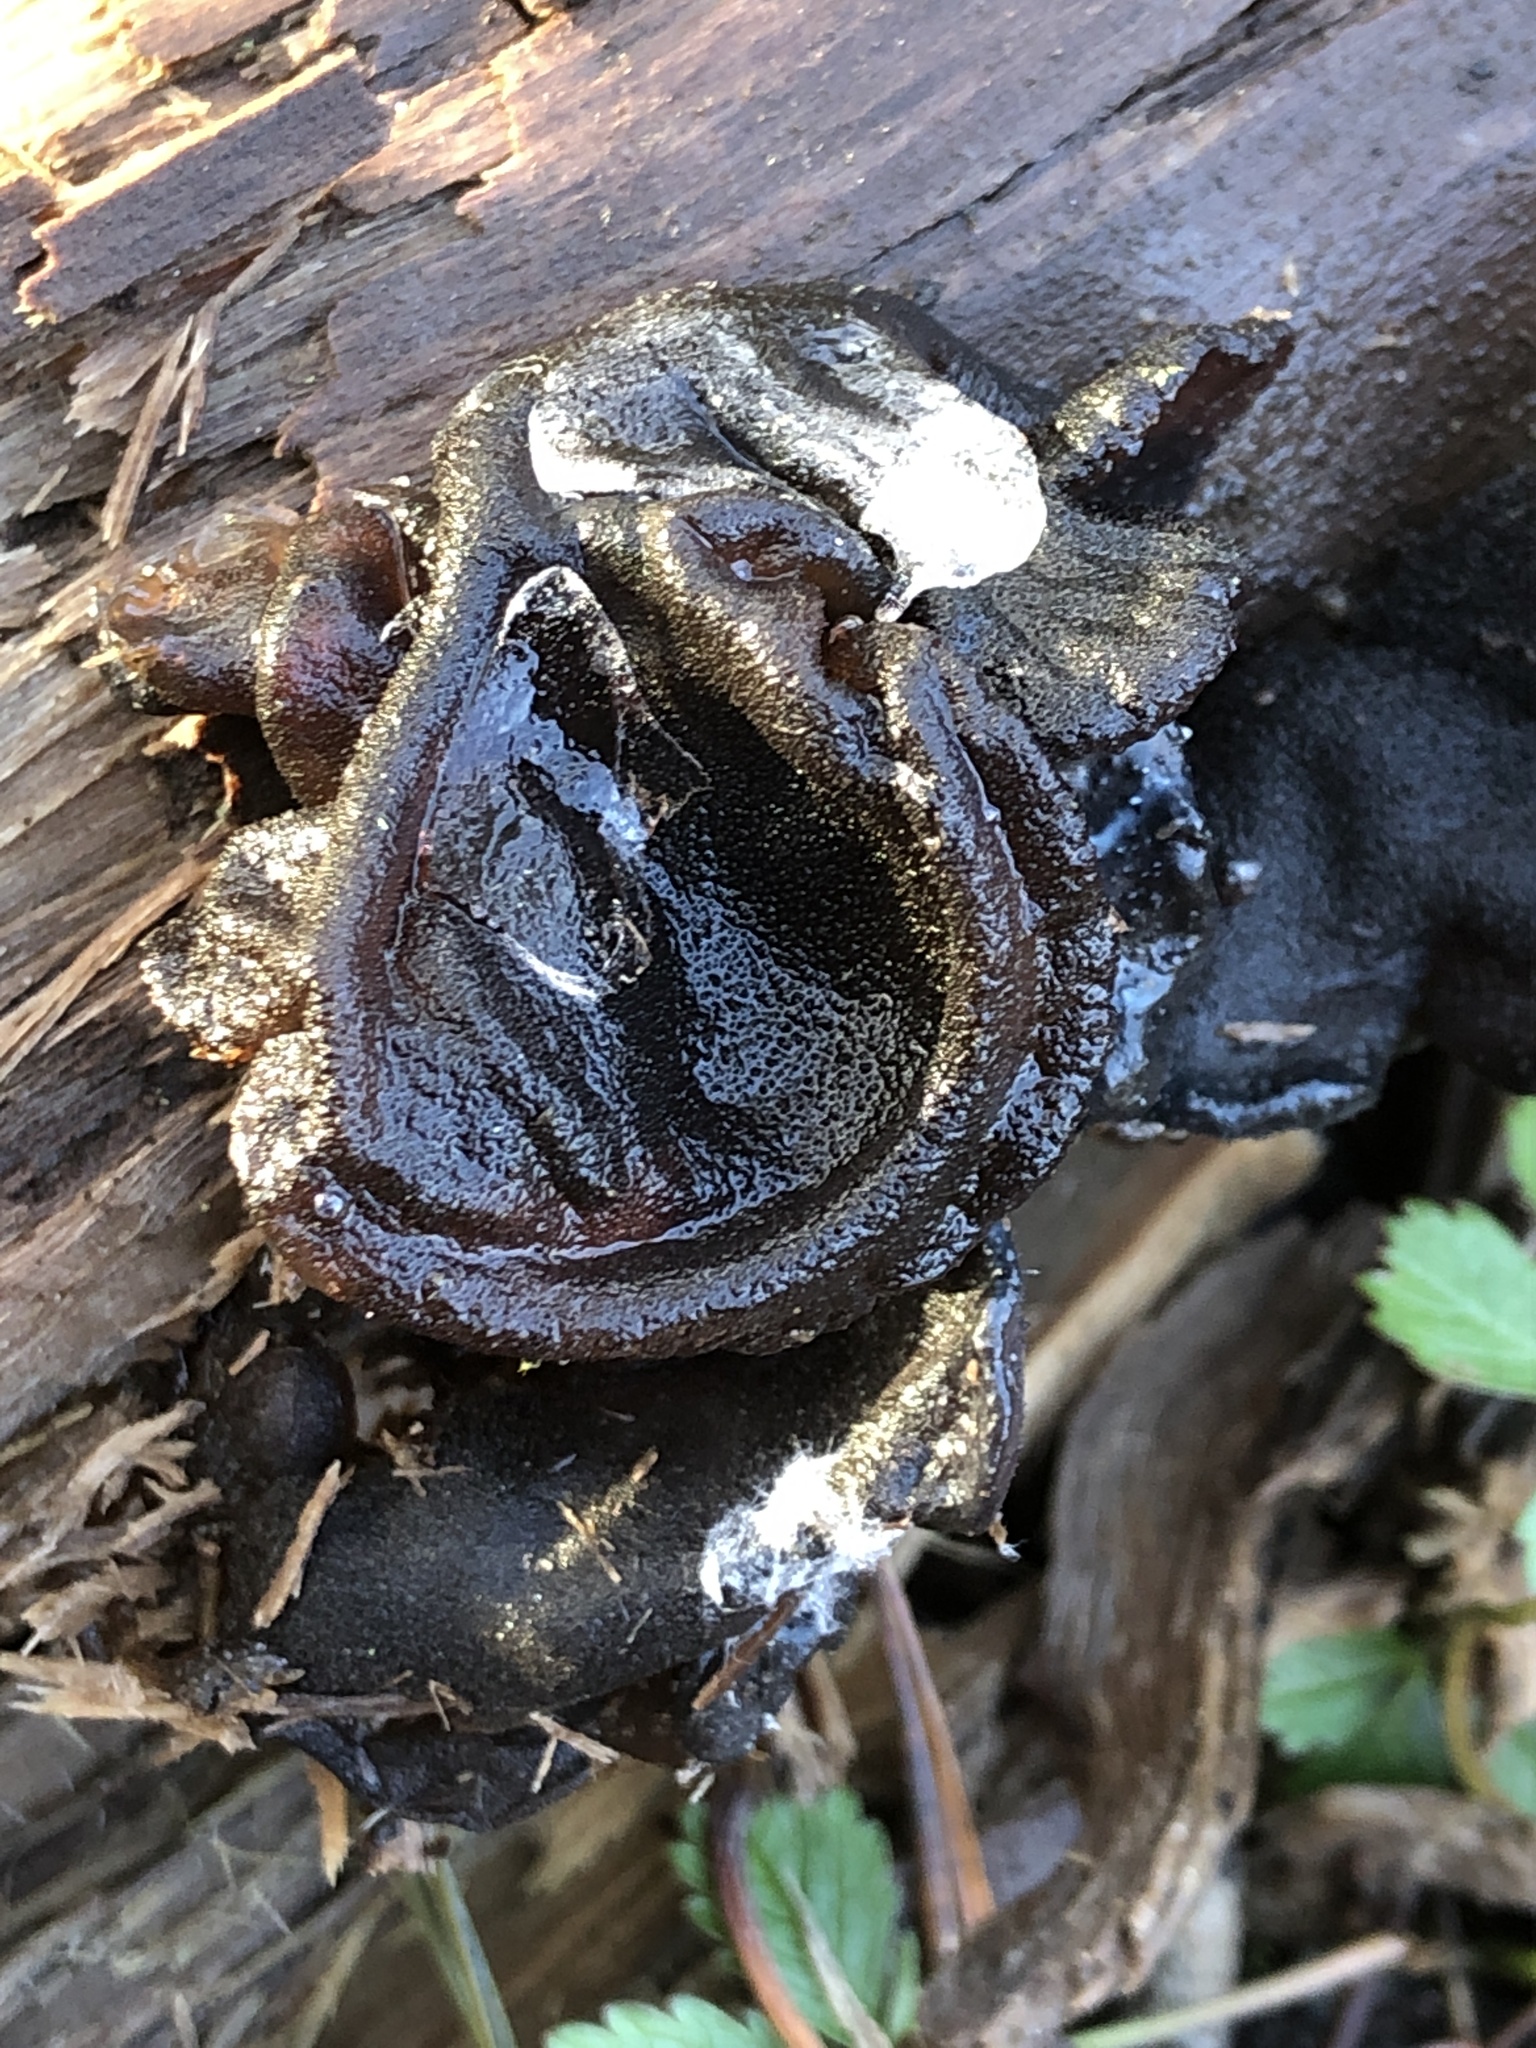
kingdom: Fungi
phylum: Basidiomycota
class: Agaricomycetes
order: Auriculariales
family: Auriculariaceae
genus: Exidia
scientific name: Exidia nigricans
